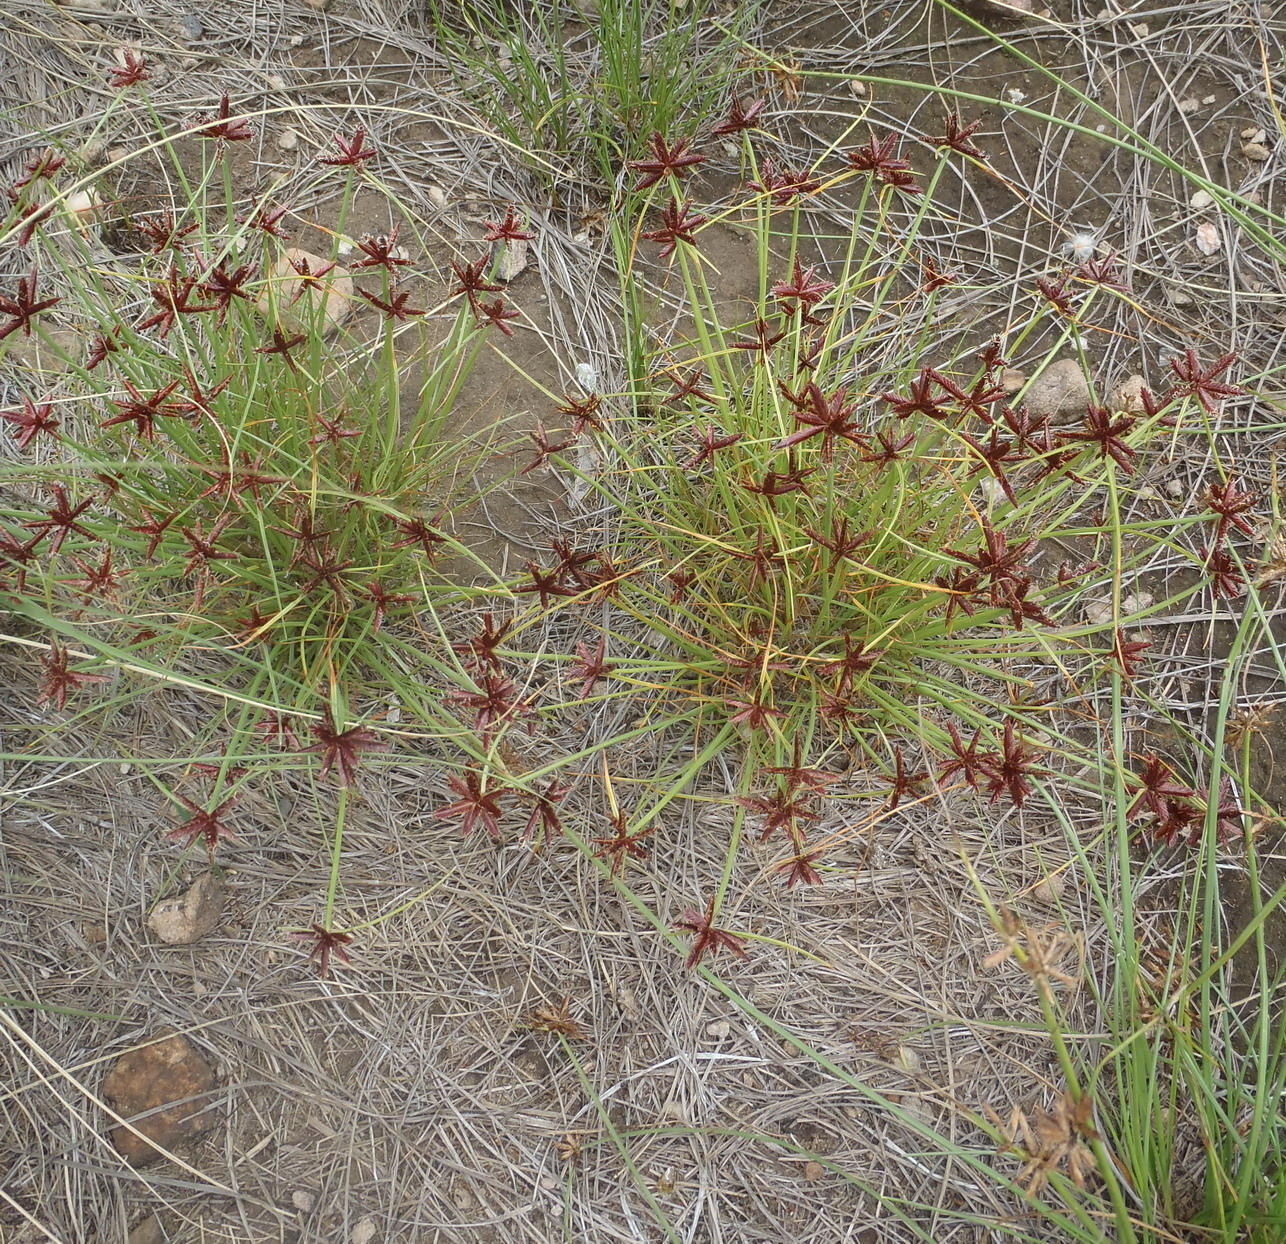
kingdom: Plantae
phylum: Tracheophyta
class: Liliopsida
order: Poales
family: Cyperaceae
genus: Cyperus
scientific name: Cyperus rupestris
